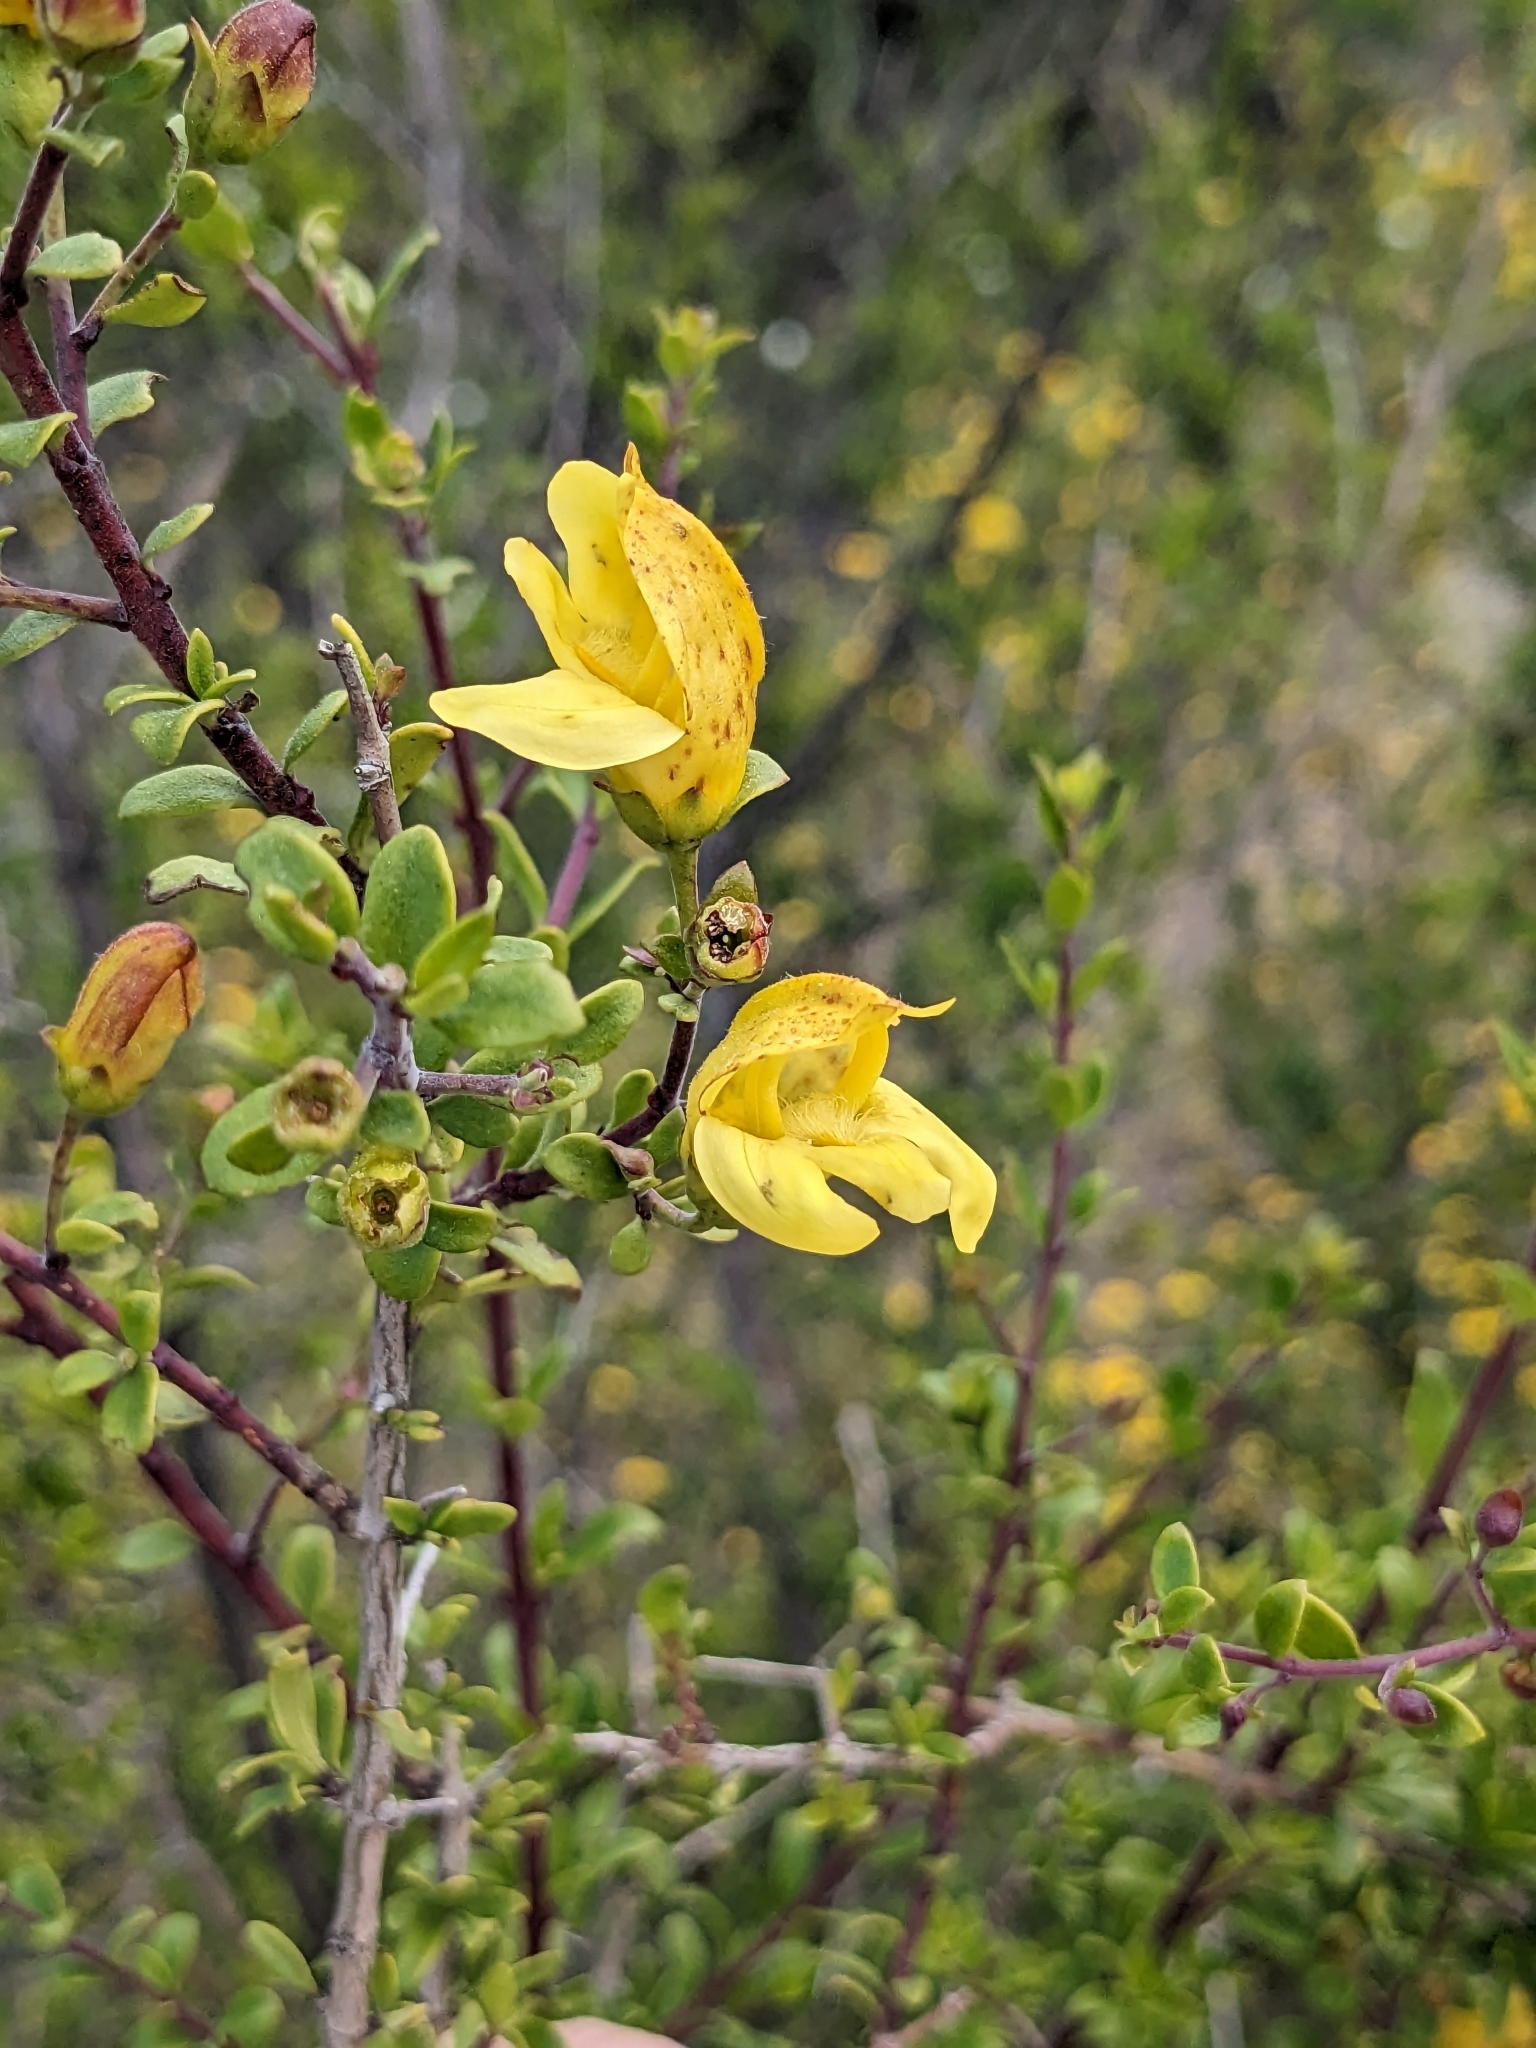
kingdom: Plantae
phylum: Tracheophyta
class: Magnoliopsida
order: Lamiales
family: Plantaginaceae
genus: Keckiella
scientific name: Keckiella antirrhinoides
